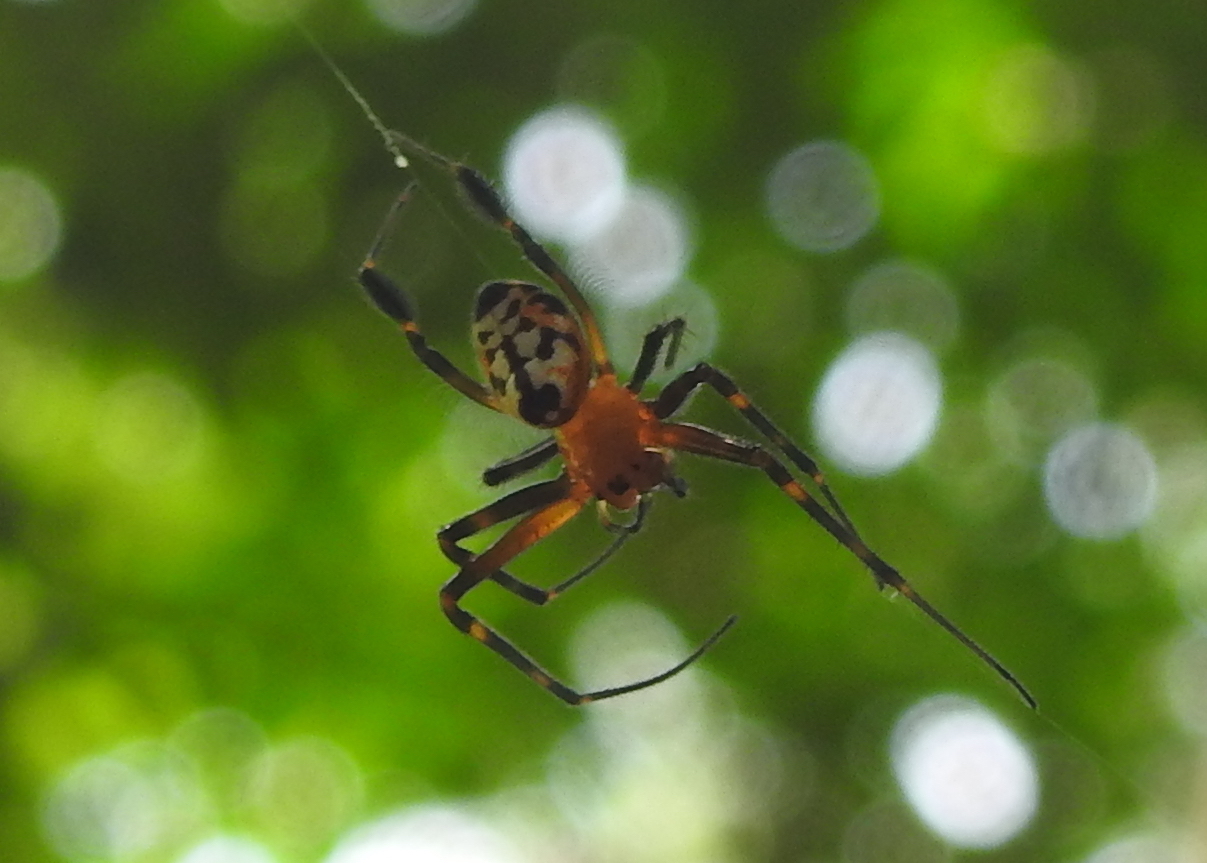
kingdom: Animalia
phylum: Arthropoda
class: Arachnida
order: Araneae
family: Tetragnathidae
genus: Leucauge
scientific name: Leucauge fastigata
